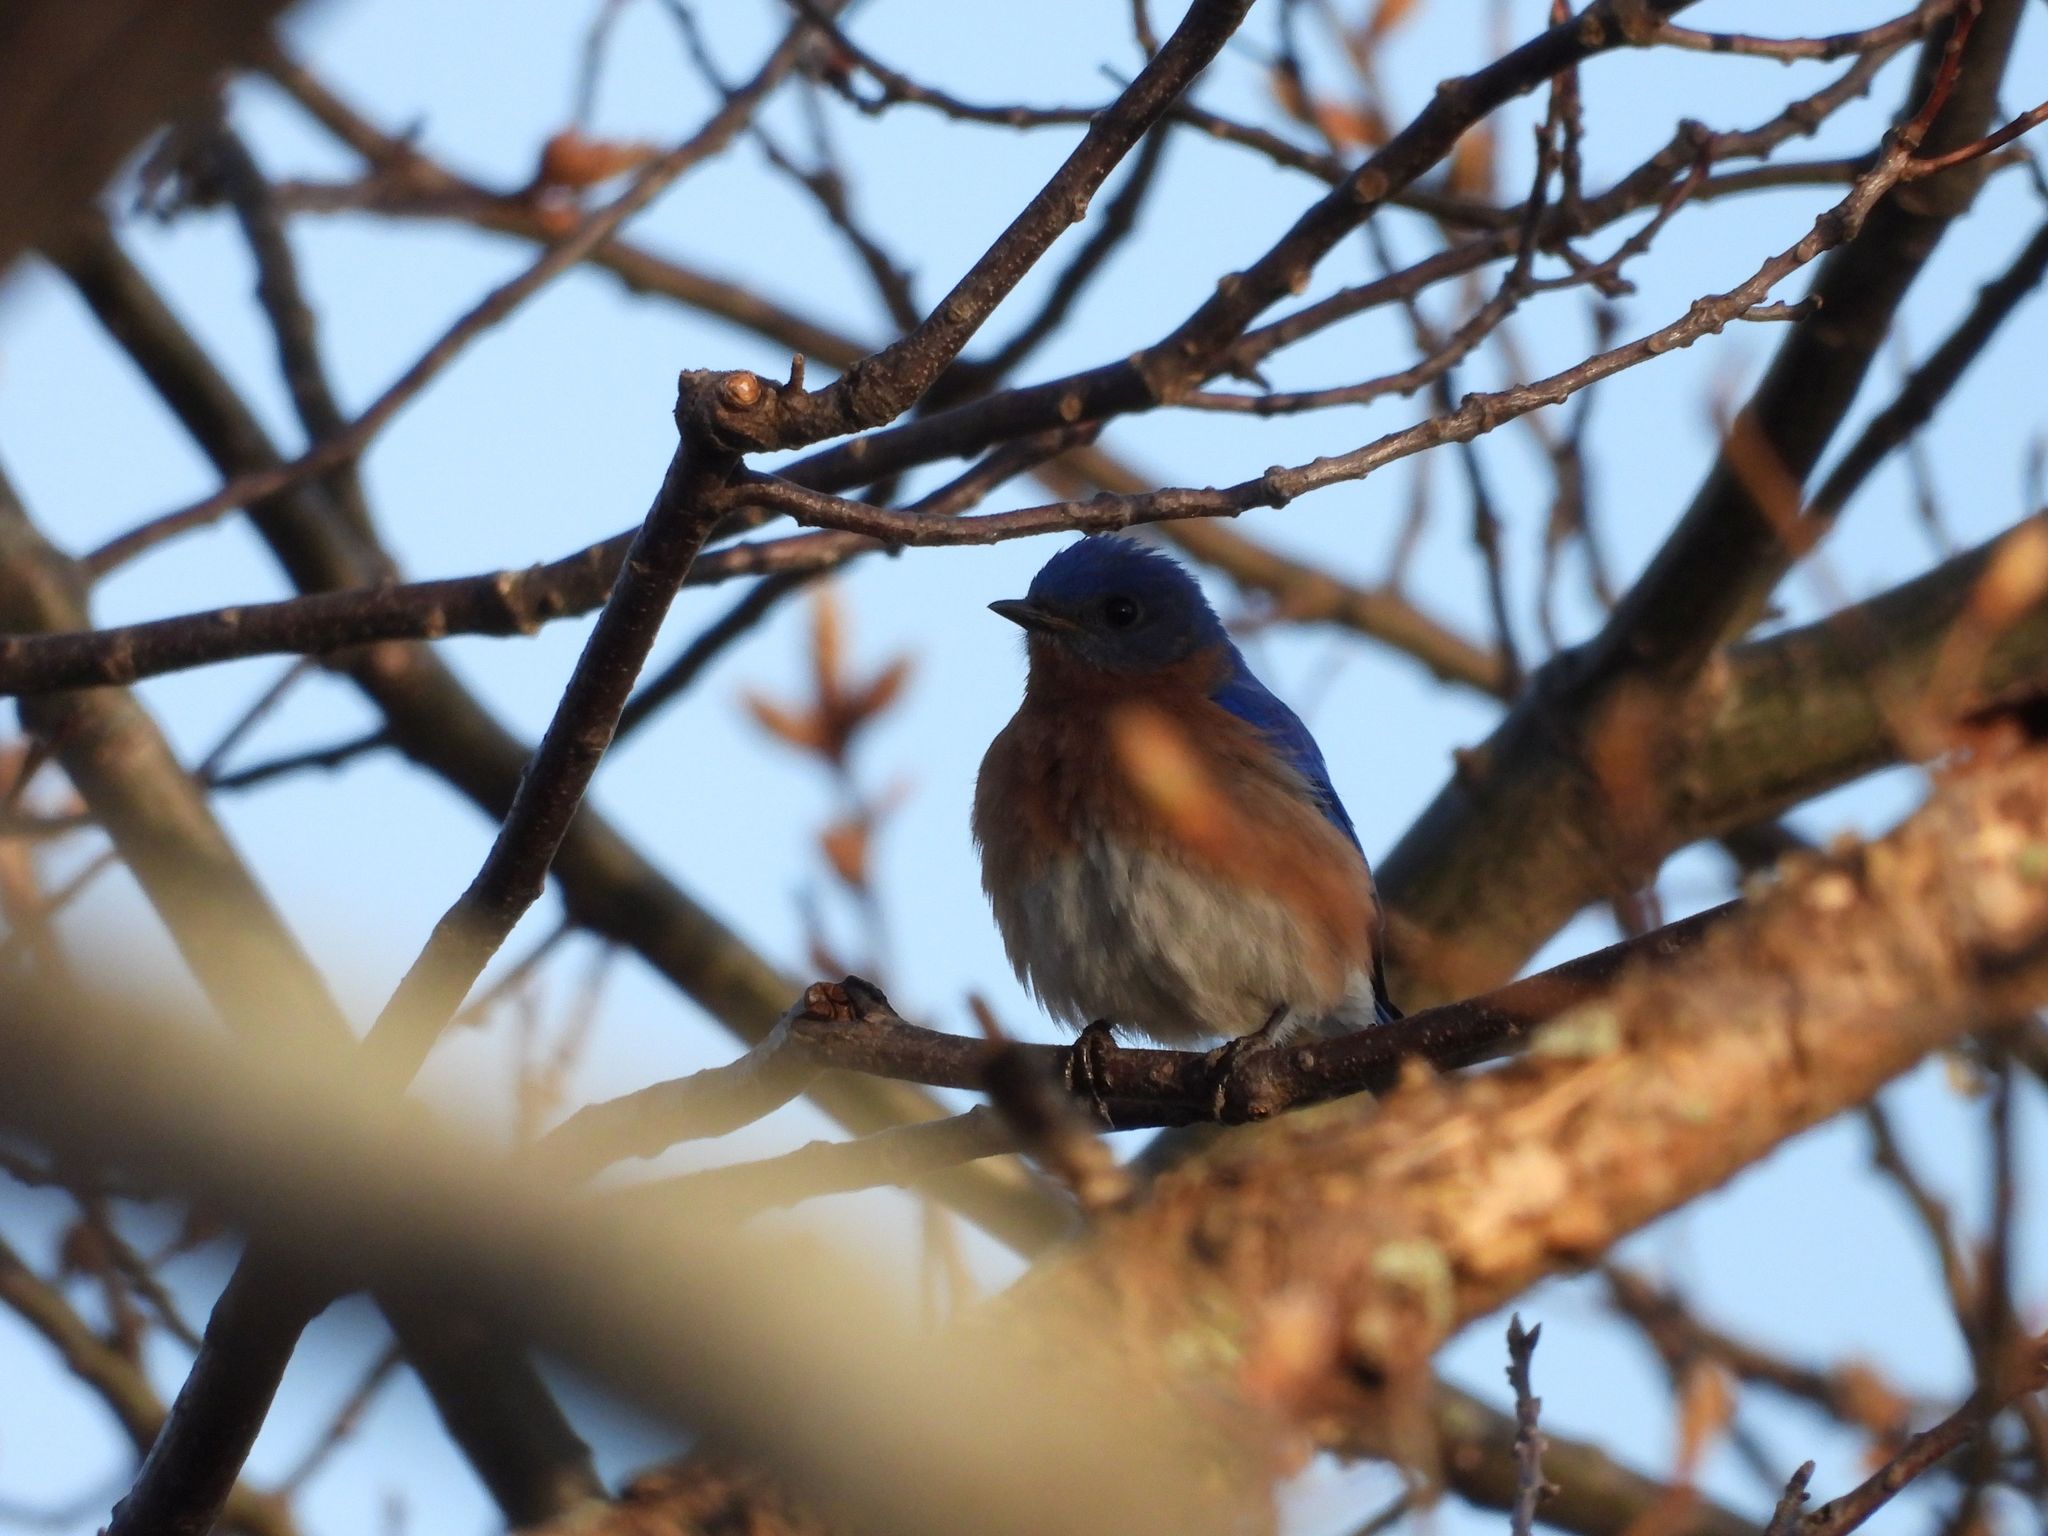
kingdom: Animalia
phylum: Chordata
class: Aves
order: Passeriformes
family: Turdidae
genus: Sialia
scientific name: Sialia sialis
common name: Eastern bluebird
